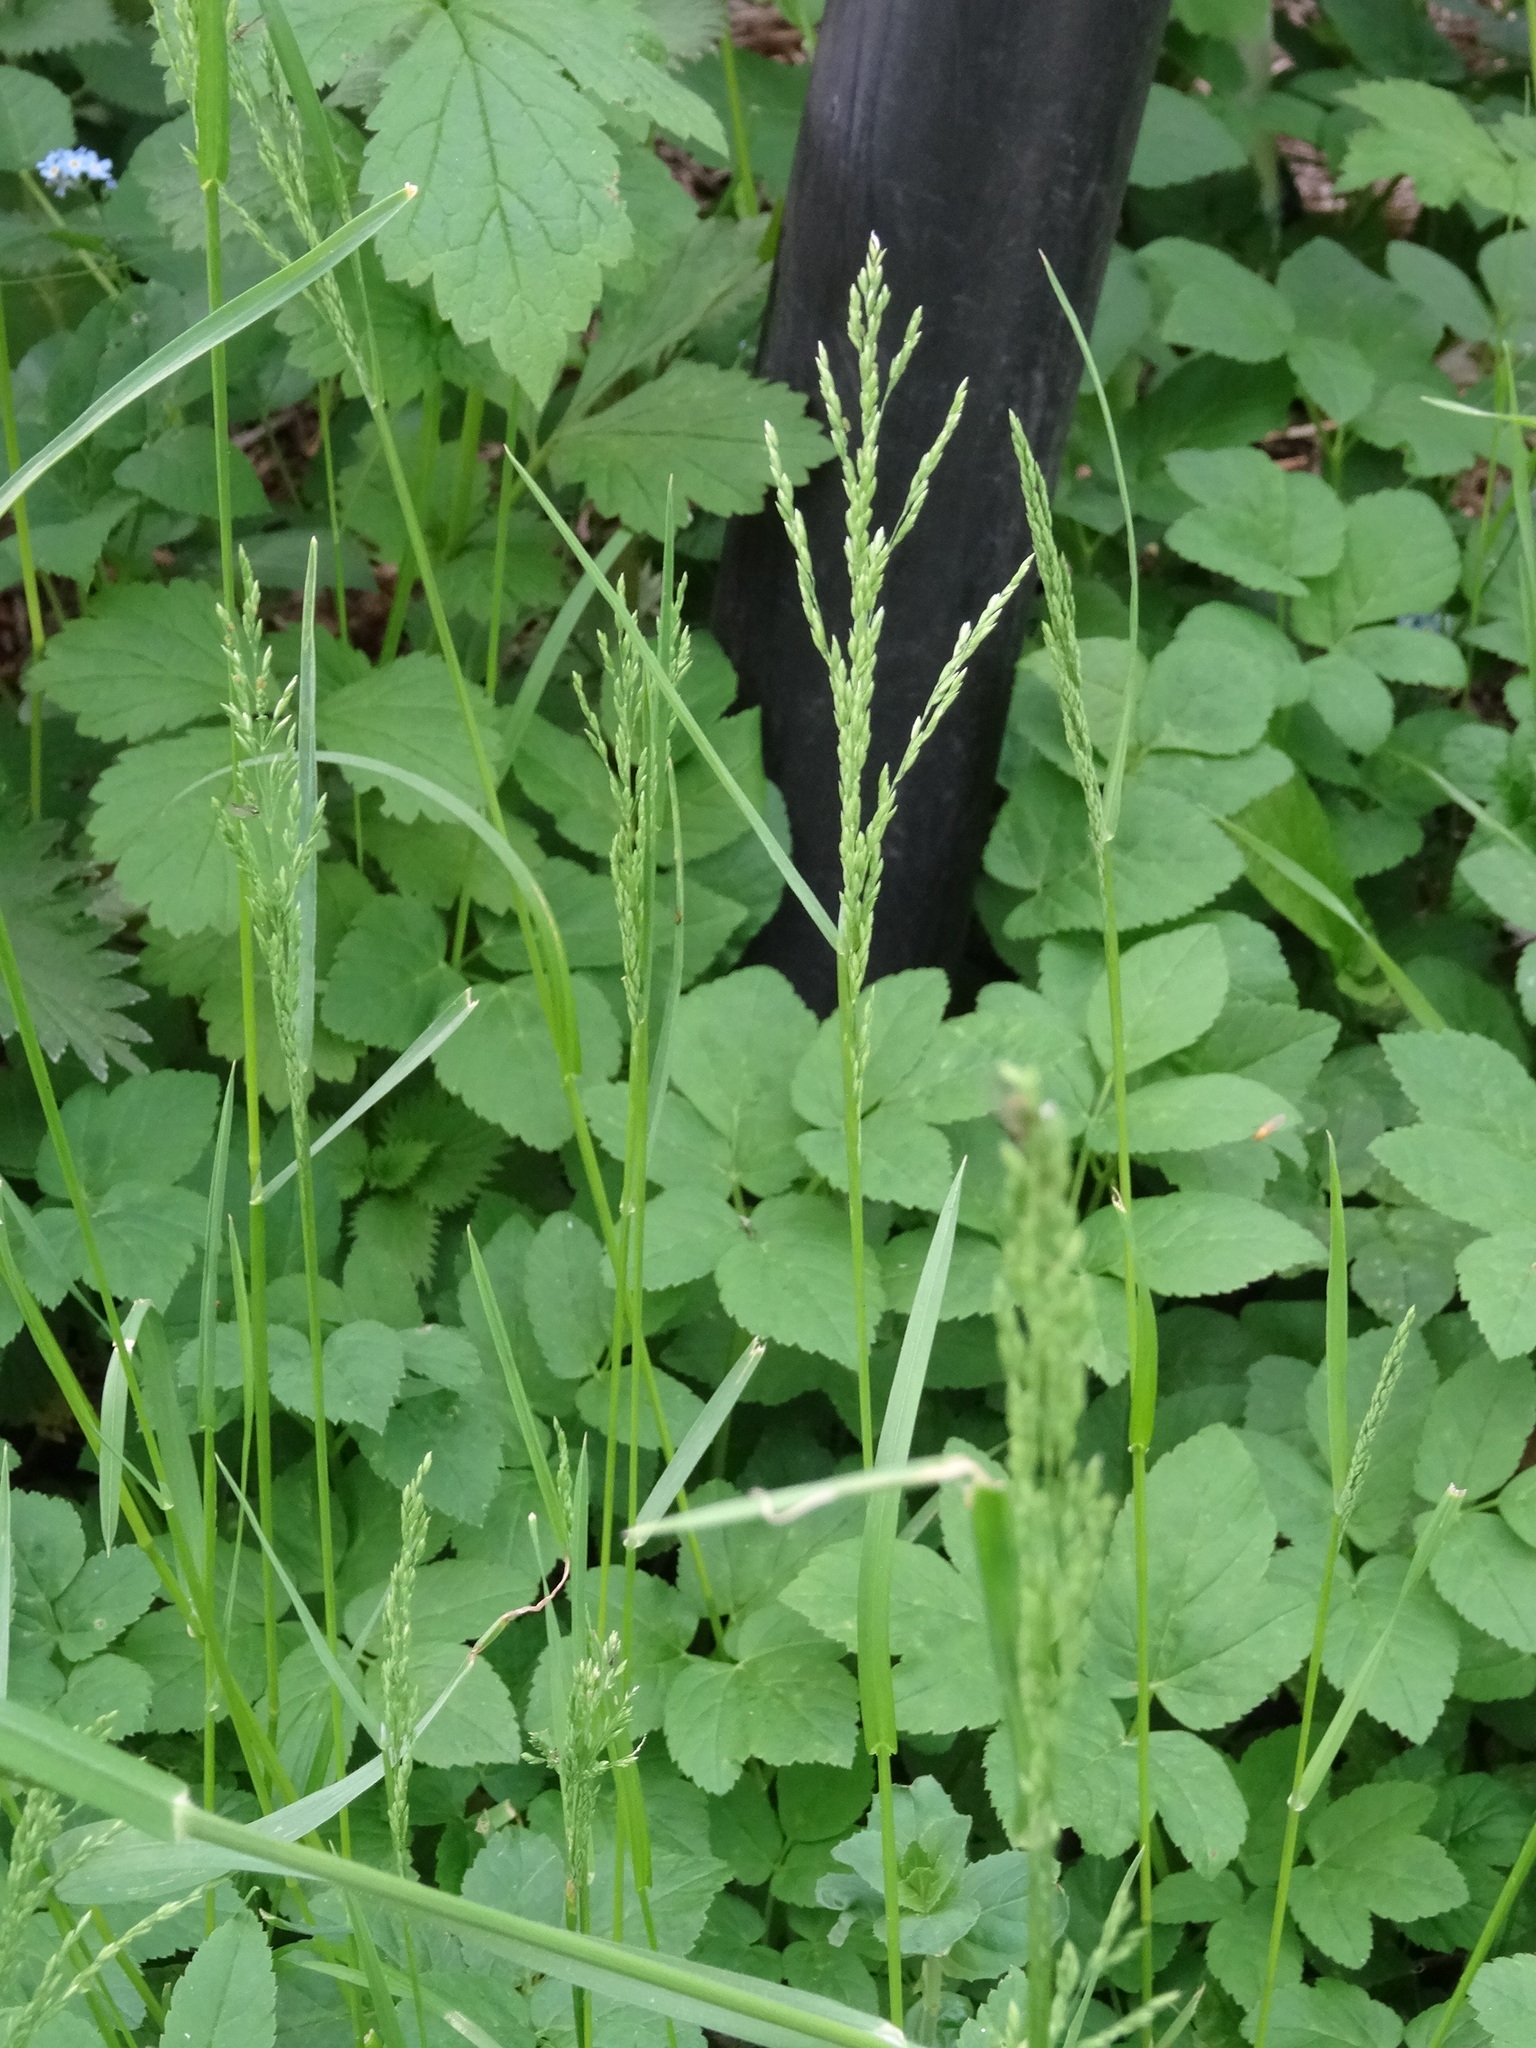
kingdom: Plantae
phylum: Tracheophyta
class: Liliopsida
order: Poales
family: Poaceae
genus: Poa
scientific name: Poa trivialis
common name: Rough bluegrass
